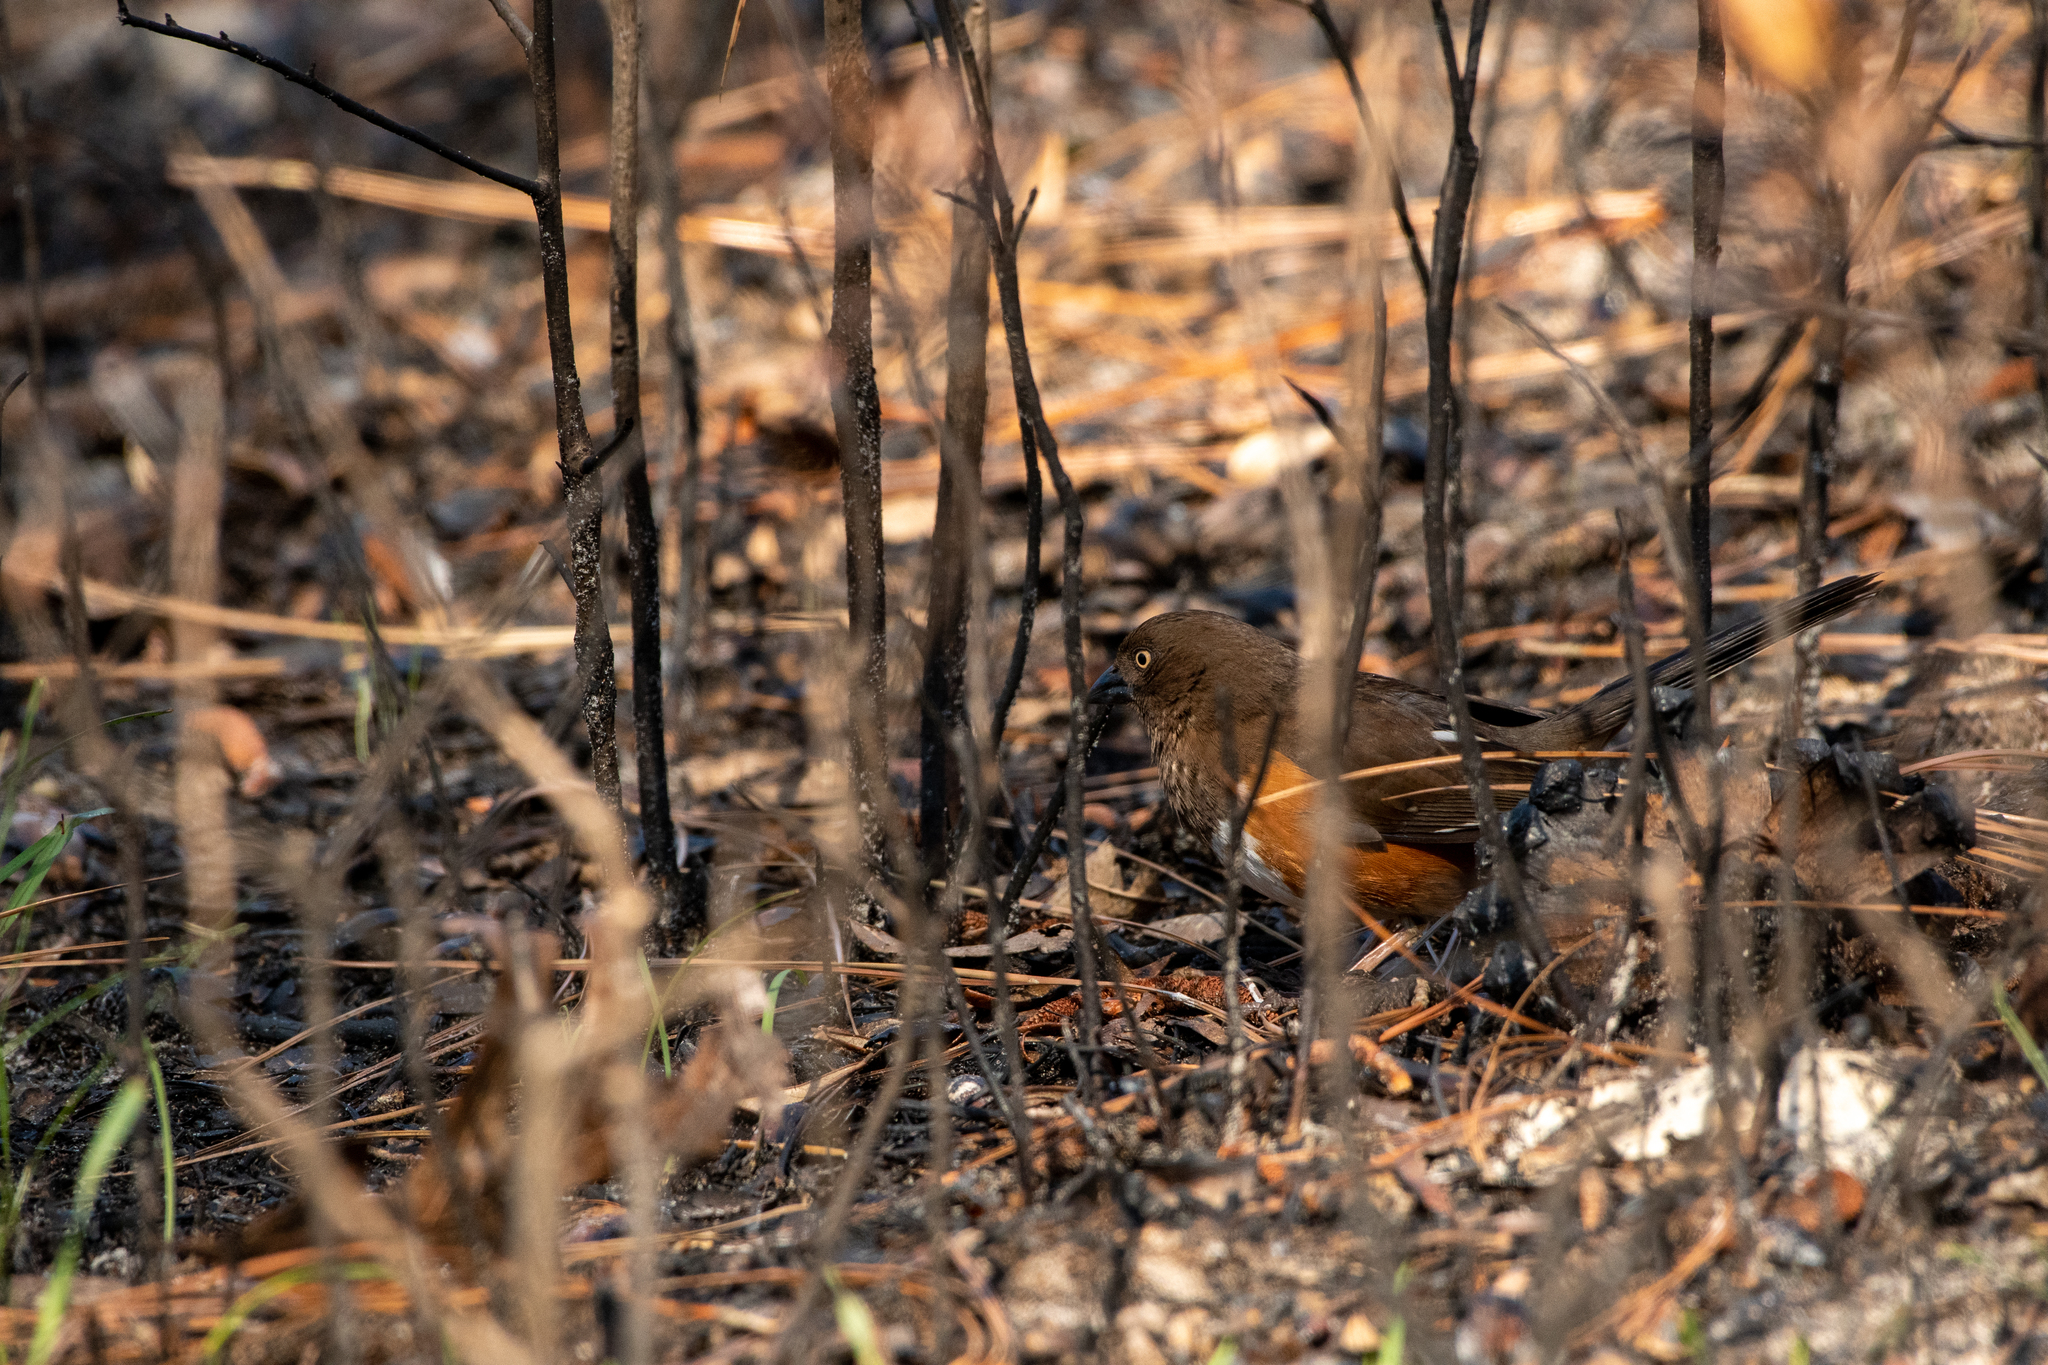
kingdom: Animalia
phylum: Chordata
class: Aves
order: Passeriformes
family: Passerellidae
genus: Pipilo
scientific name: Pipilo erythrophthalmus
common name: Eastern towhee
